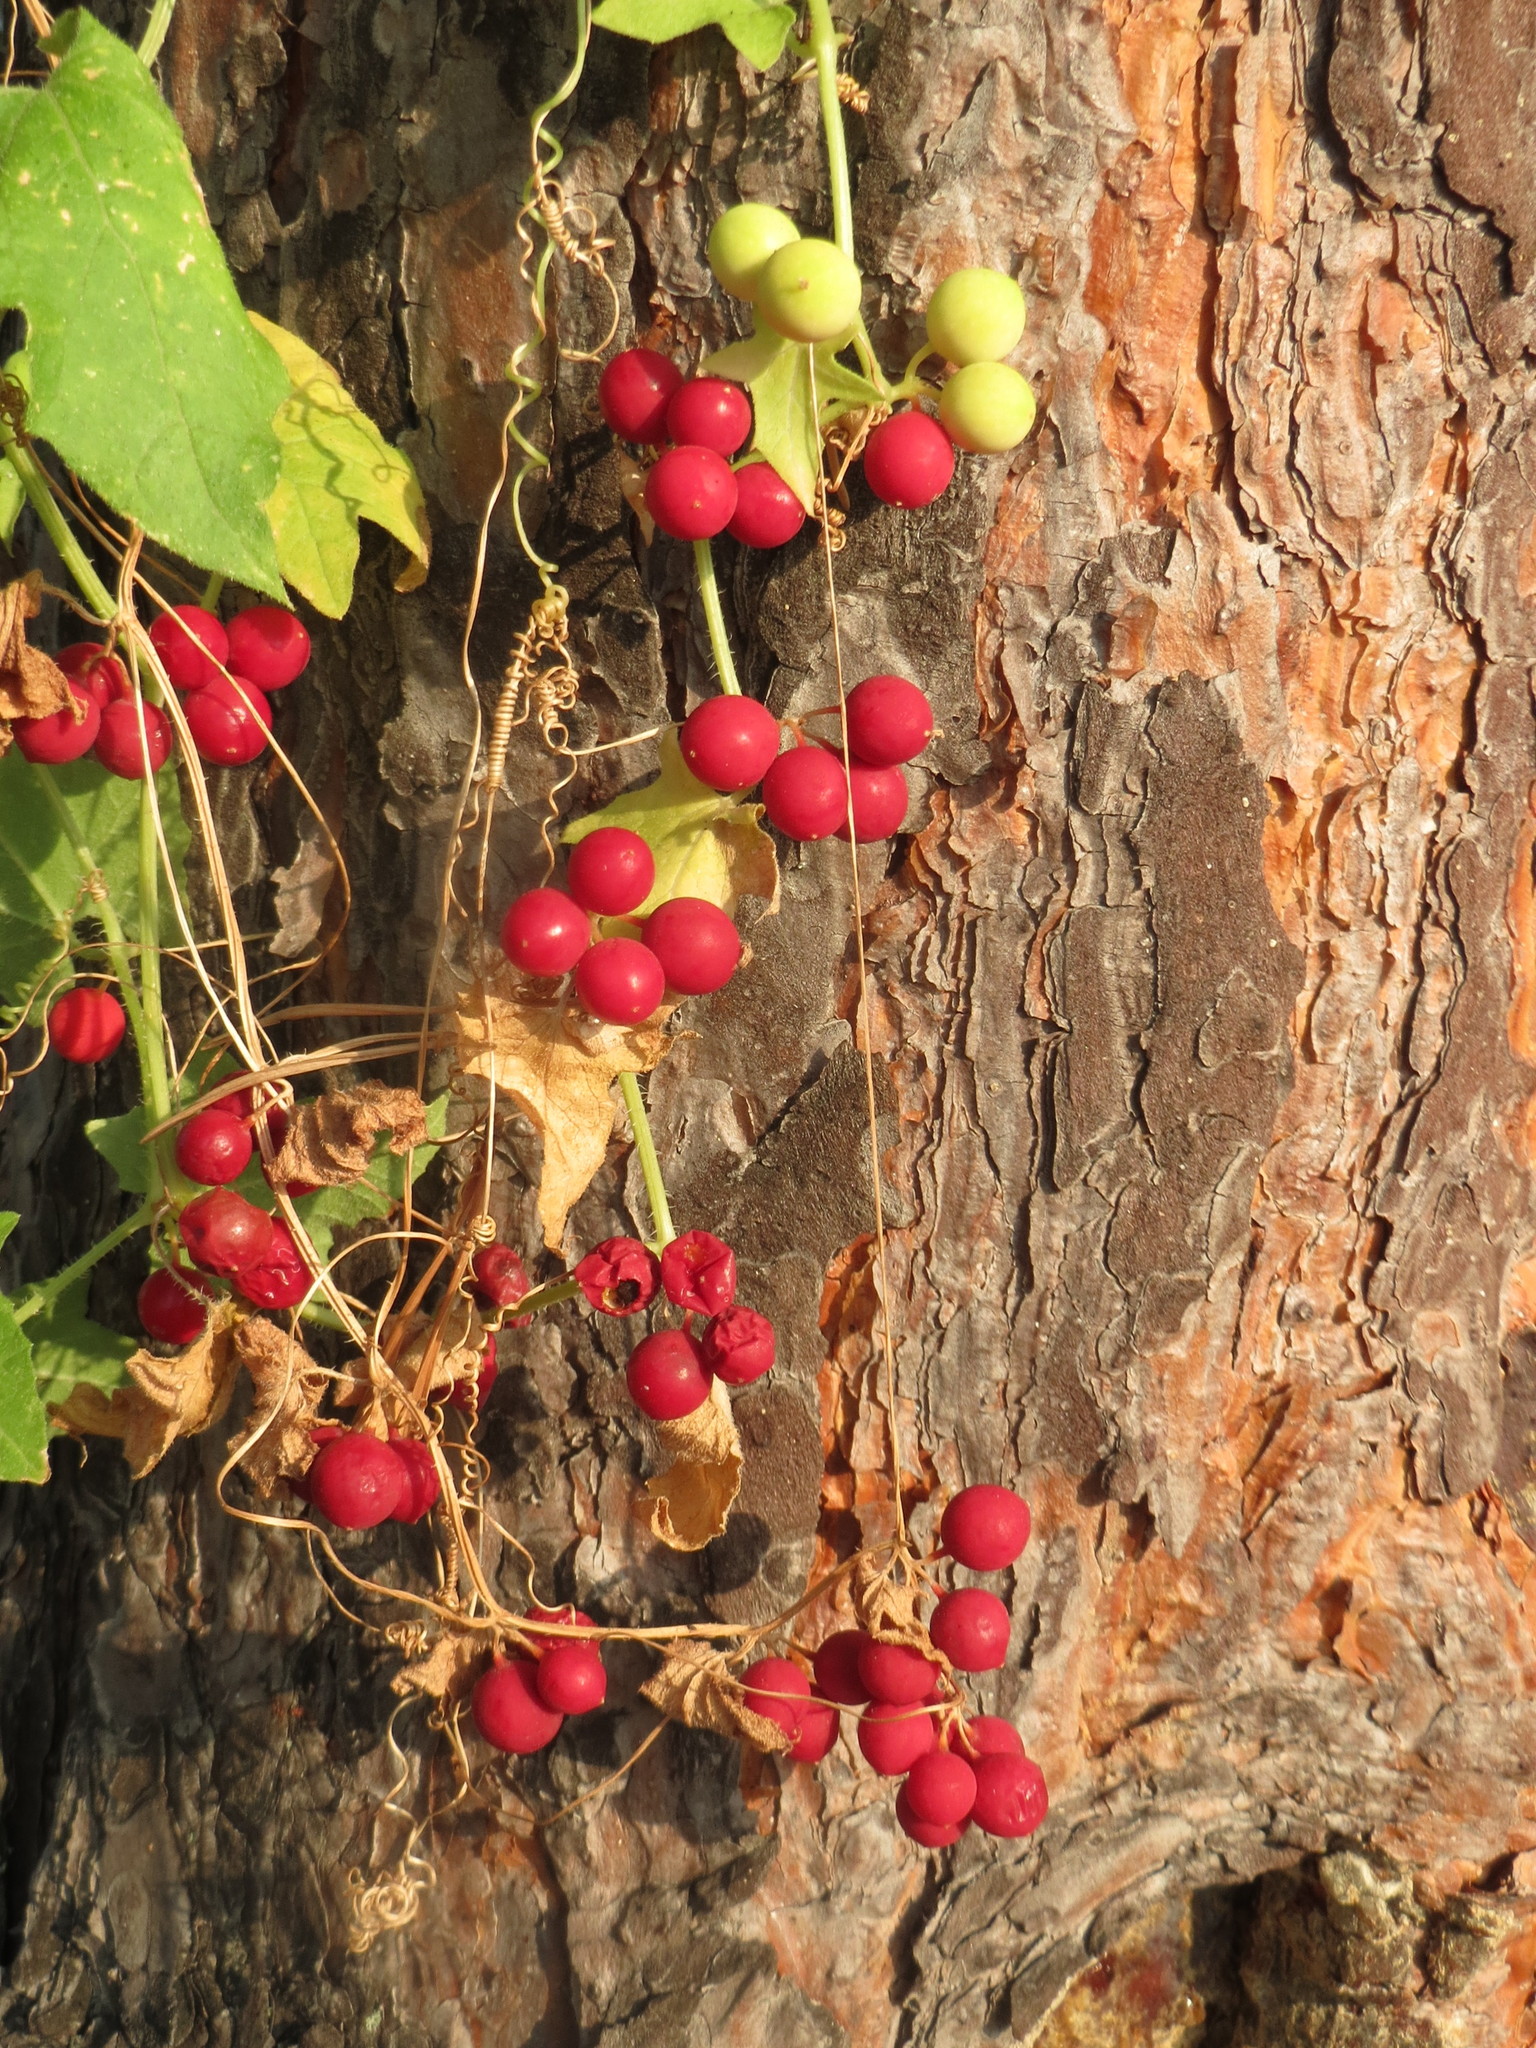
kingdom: Plantae
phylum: Tracheophyta
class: Magnoliopsida
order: Cucurbitales
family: Cucurbitaceae
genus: Bryonia
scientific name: Bryonia dioica
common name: White bryony
